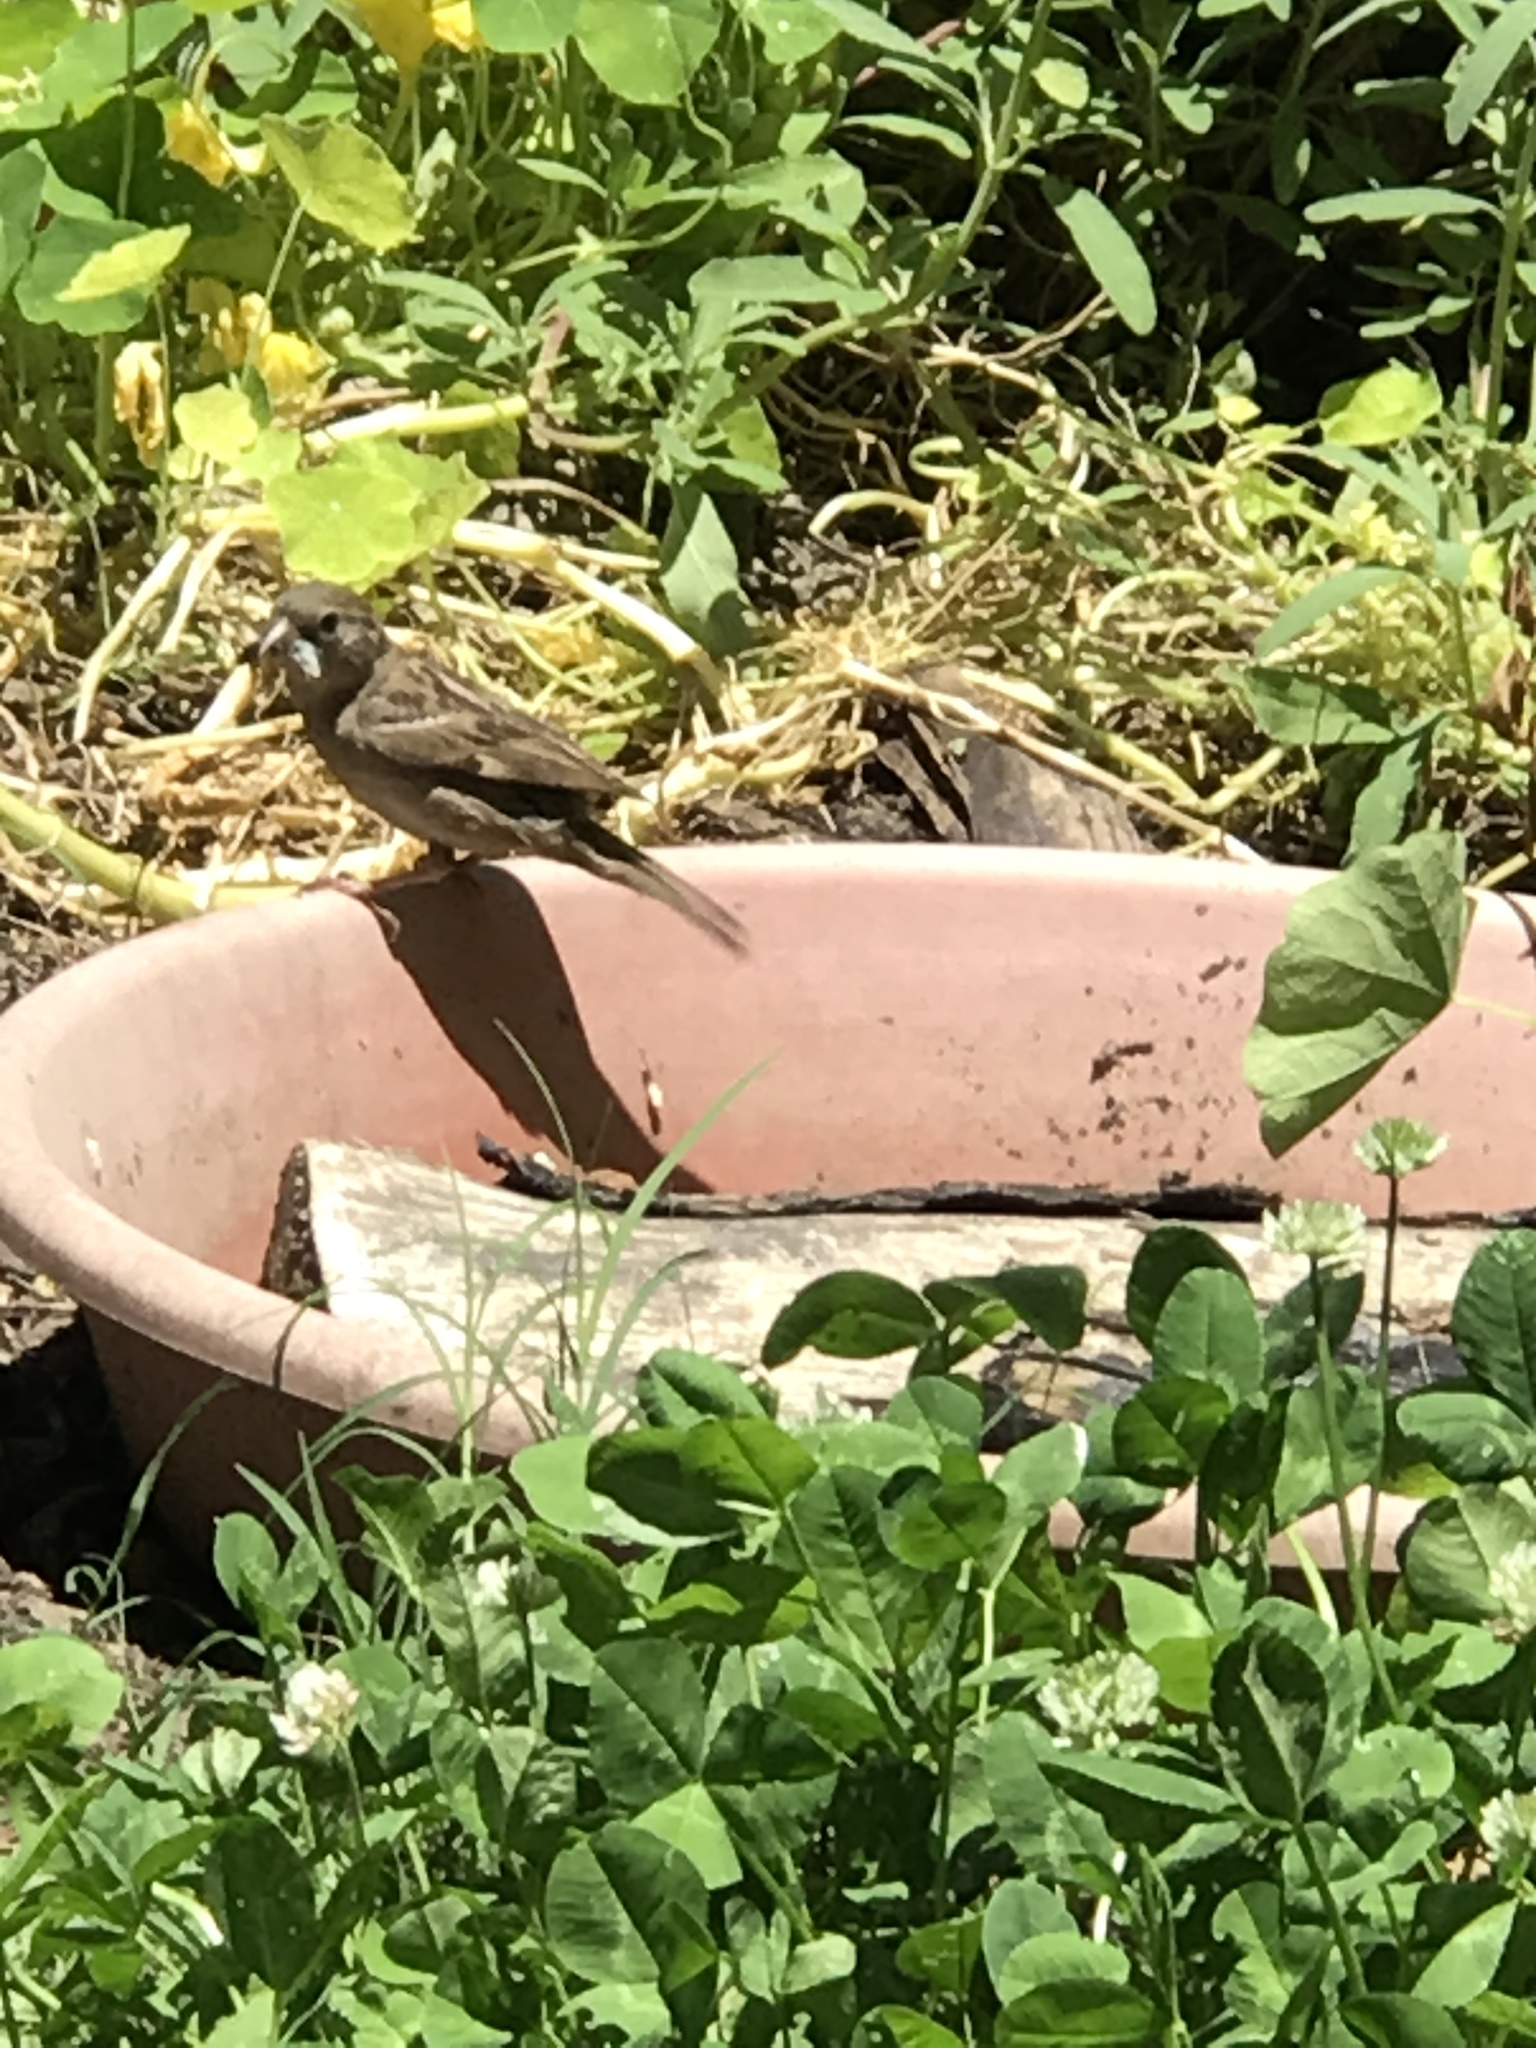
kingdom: Animalia
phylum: Chordata
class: Aves
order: Passeriformes
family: Passeridae
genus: Passer
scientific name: Passer domesticus
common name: House sparrow
